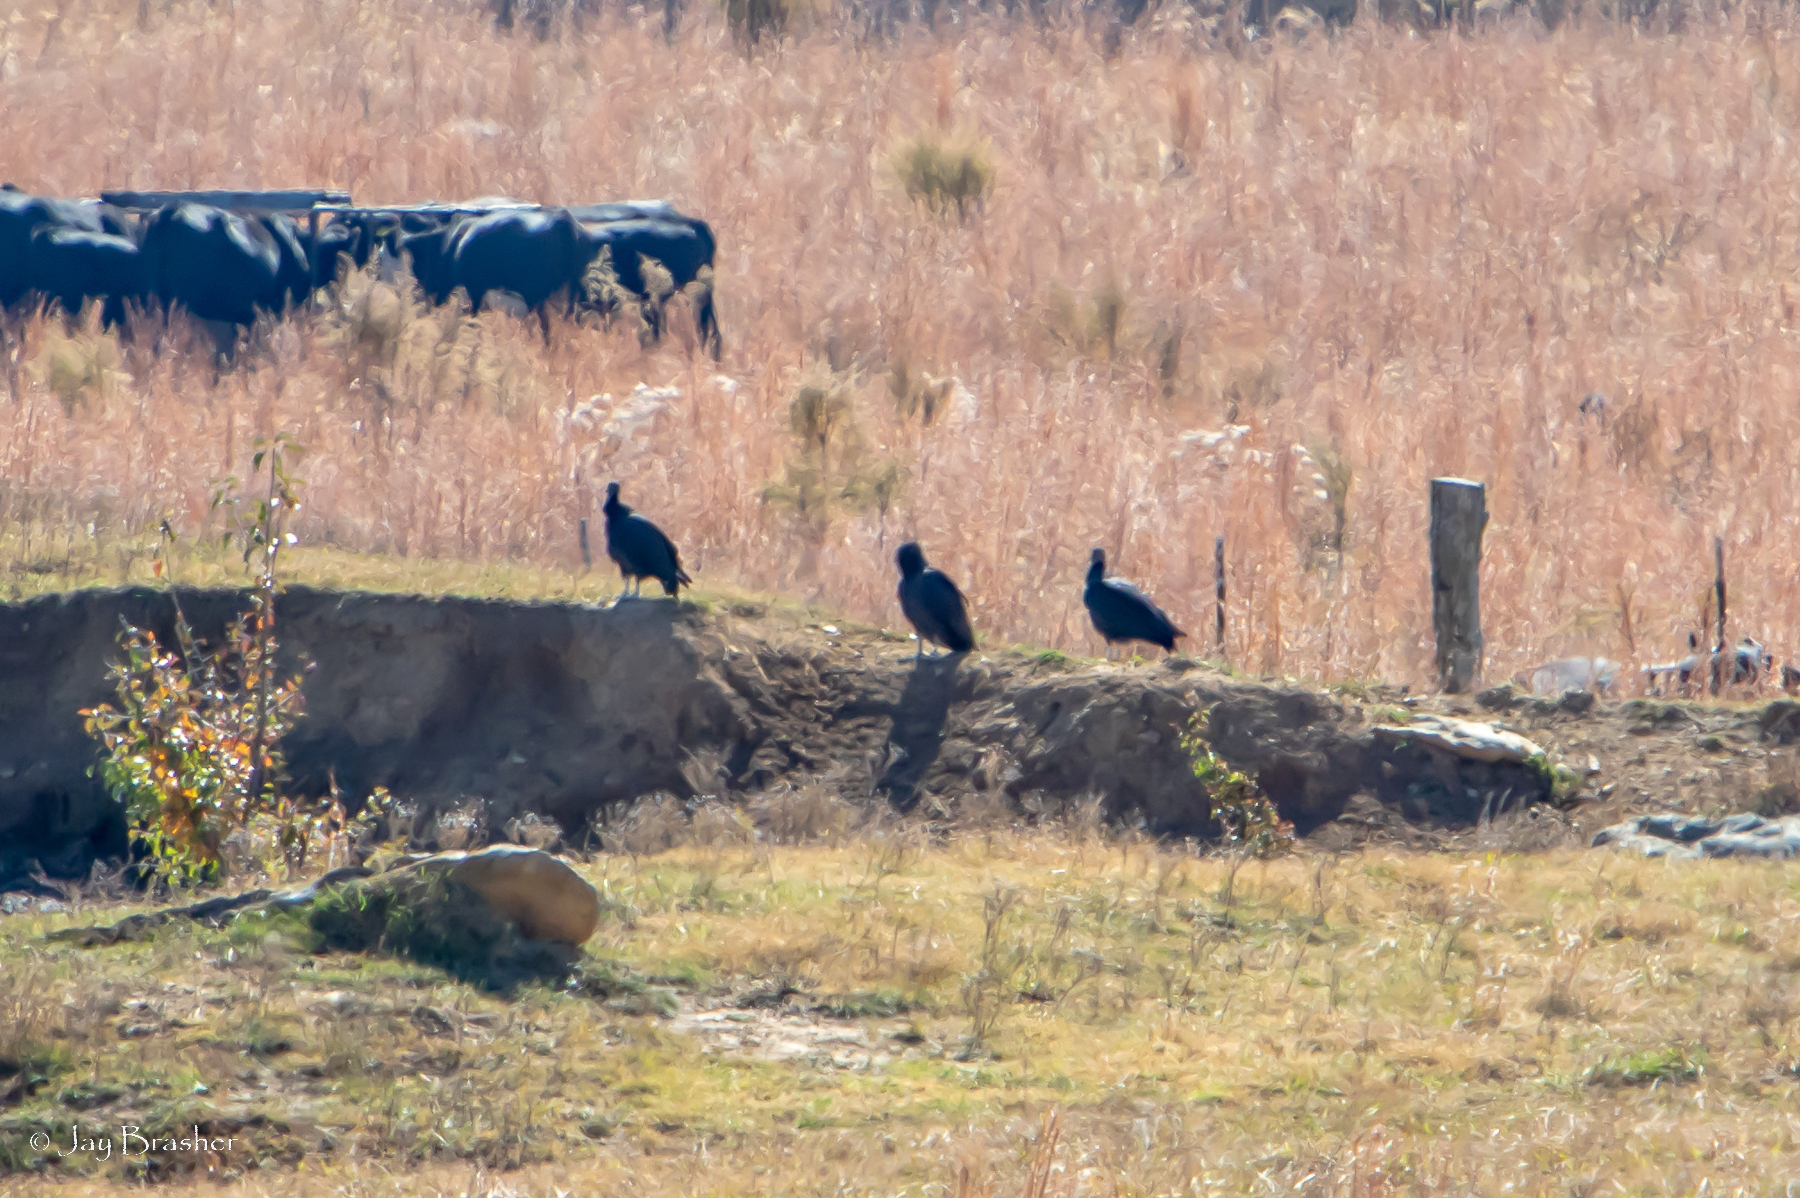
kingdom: Animalia
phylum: Chordata
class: Aves
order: Accipitriformes
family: Cathartidae
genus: Coragyps
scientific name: Coragyps atratus
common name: Black vulture
